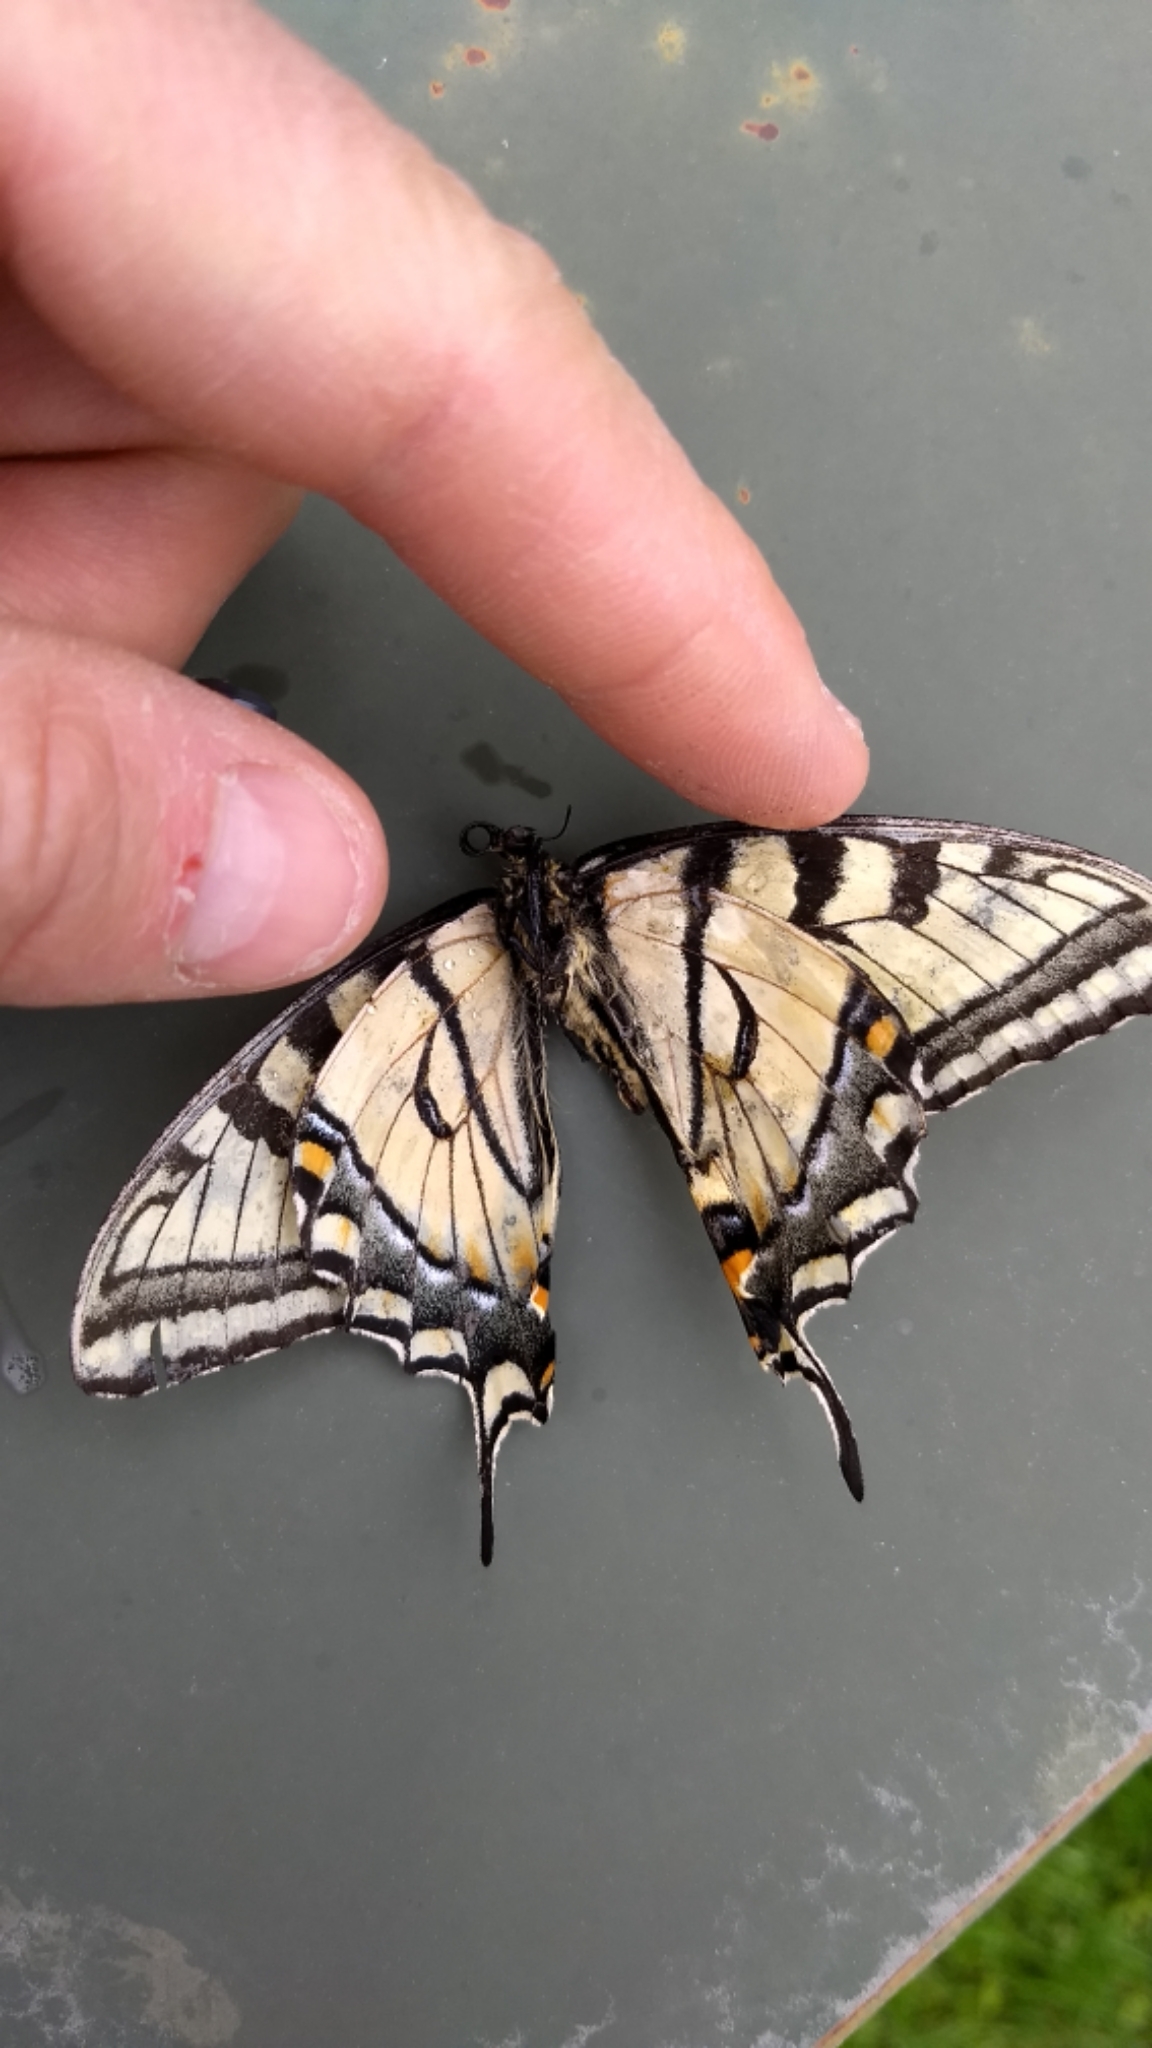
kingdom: Animalia
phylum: Arthropoda
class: Insecta
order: Lepidoptera
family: Papilionidae
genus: Papilio
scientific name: Papilio canadensis
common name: Canadian tiger swallowtail
